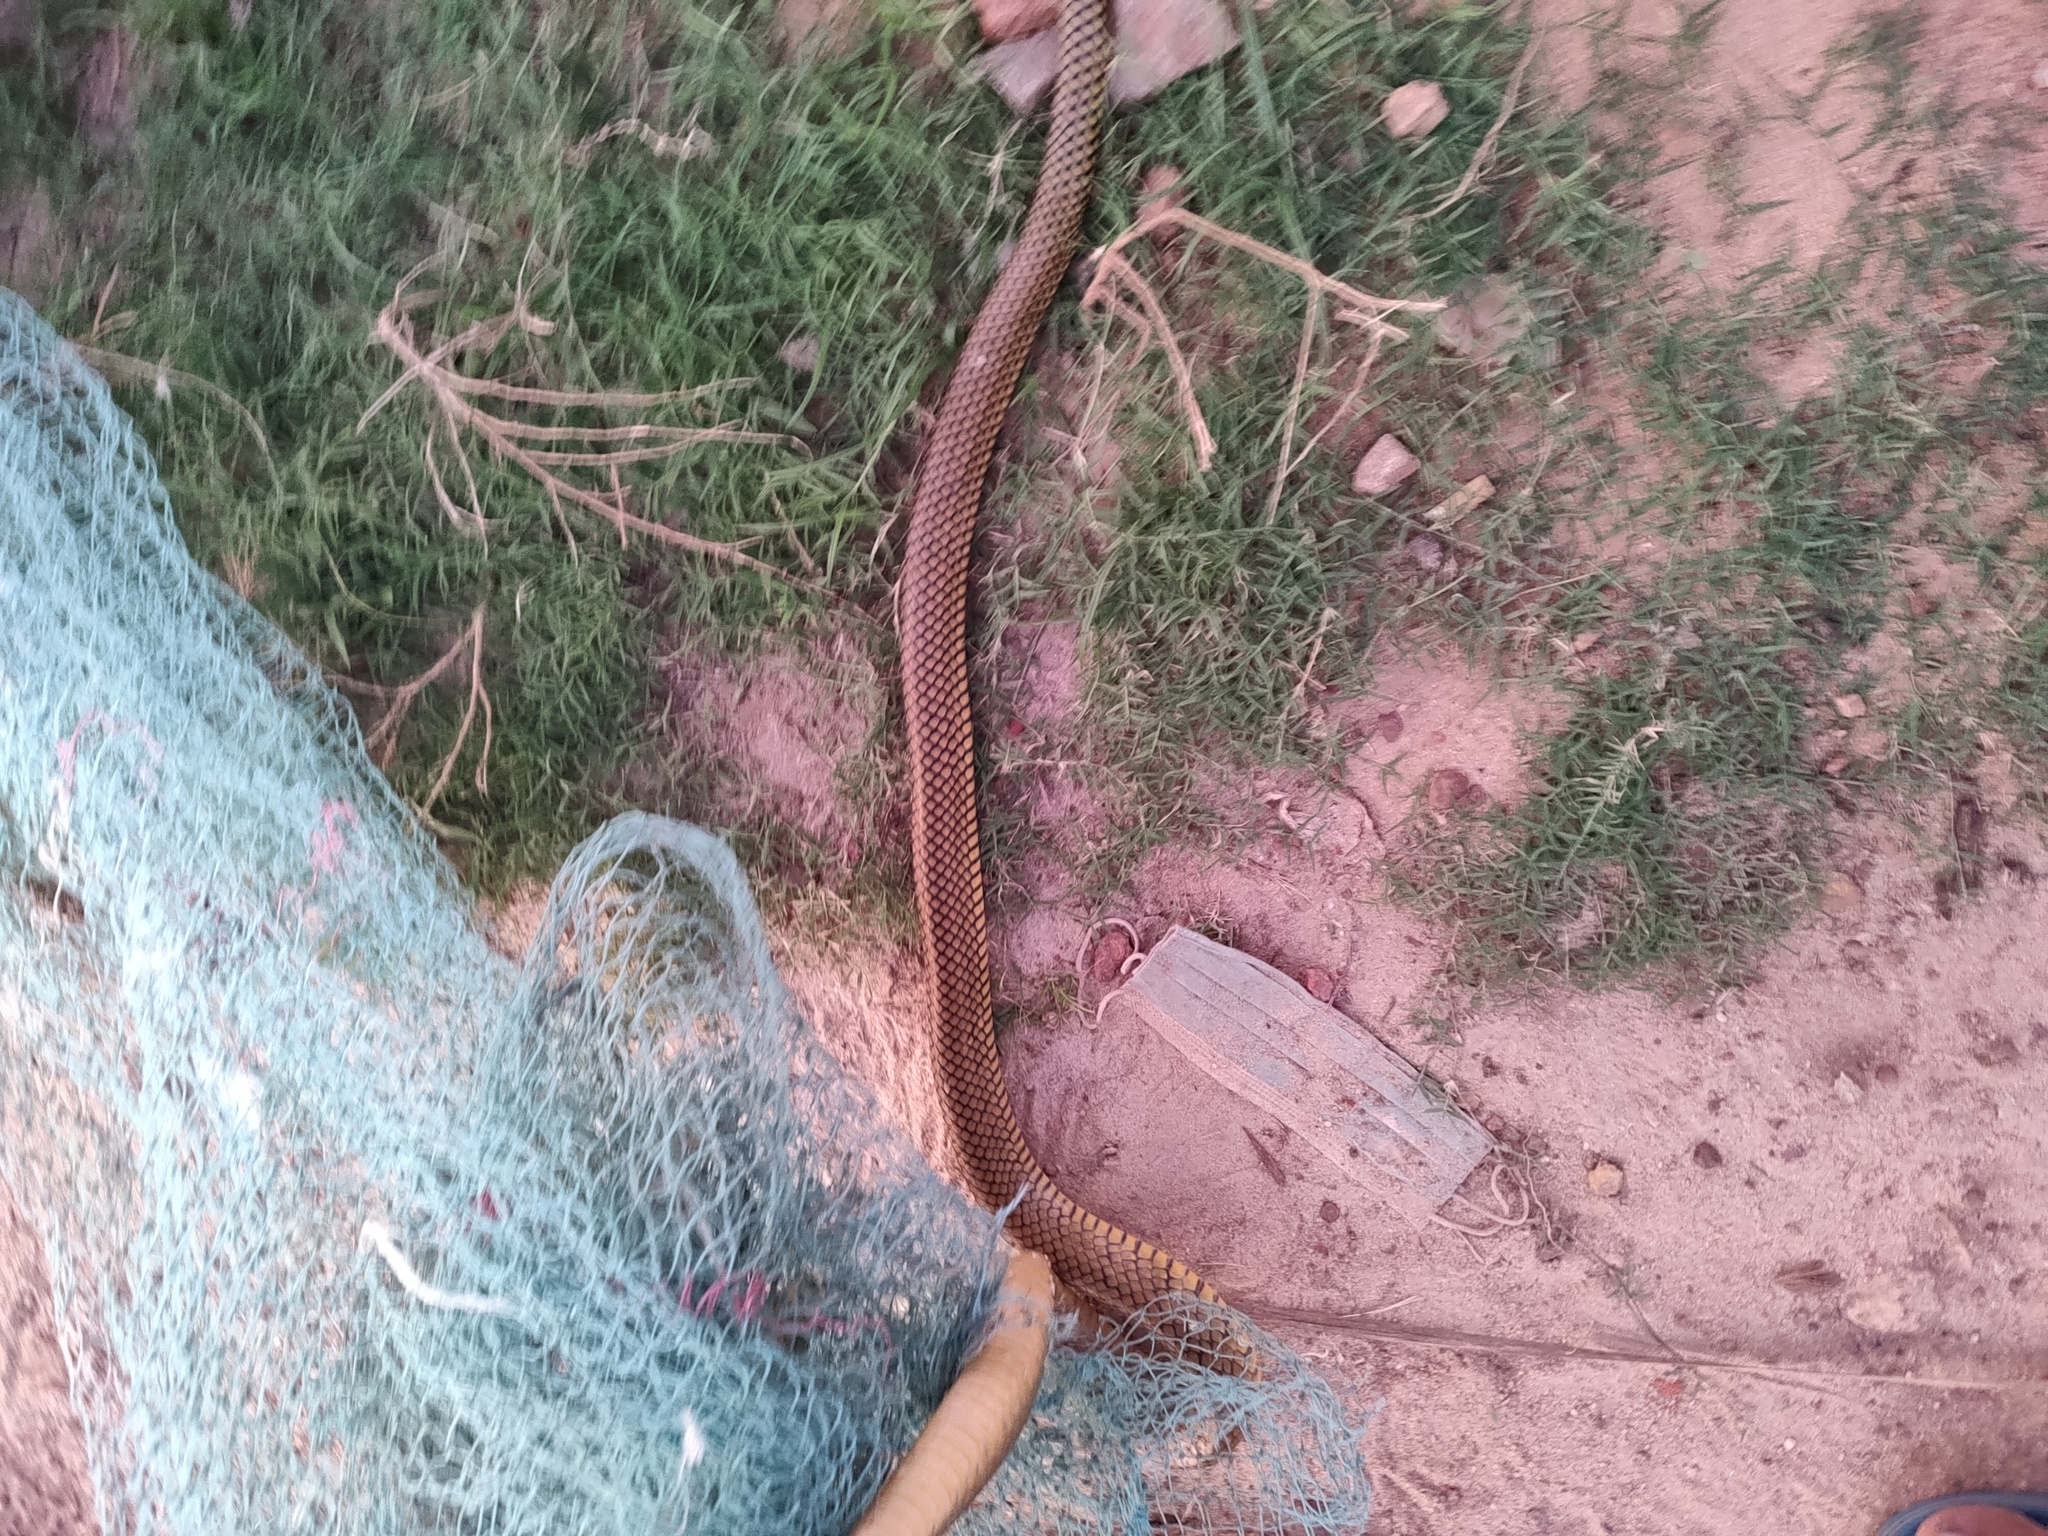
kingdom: Animalia
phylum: Chordata
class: Squamata
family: Colubridae
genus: Ptyas
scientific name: Ptyas mucosa
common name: Oriental ratsnake
